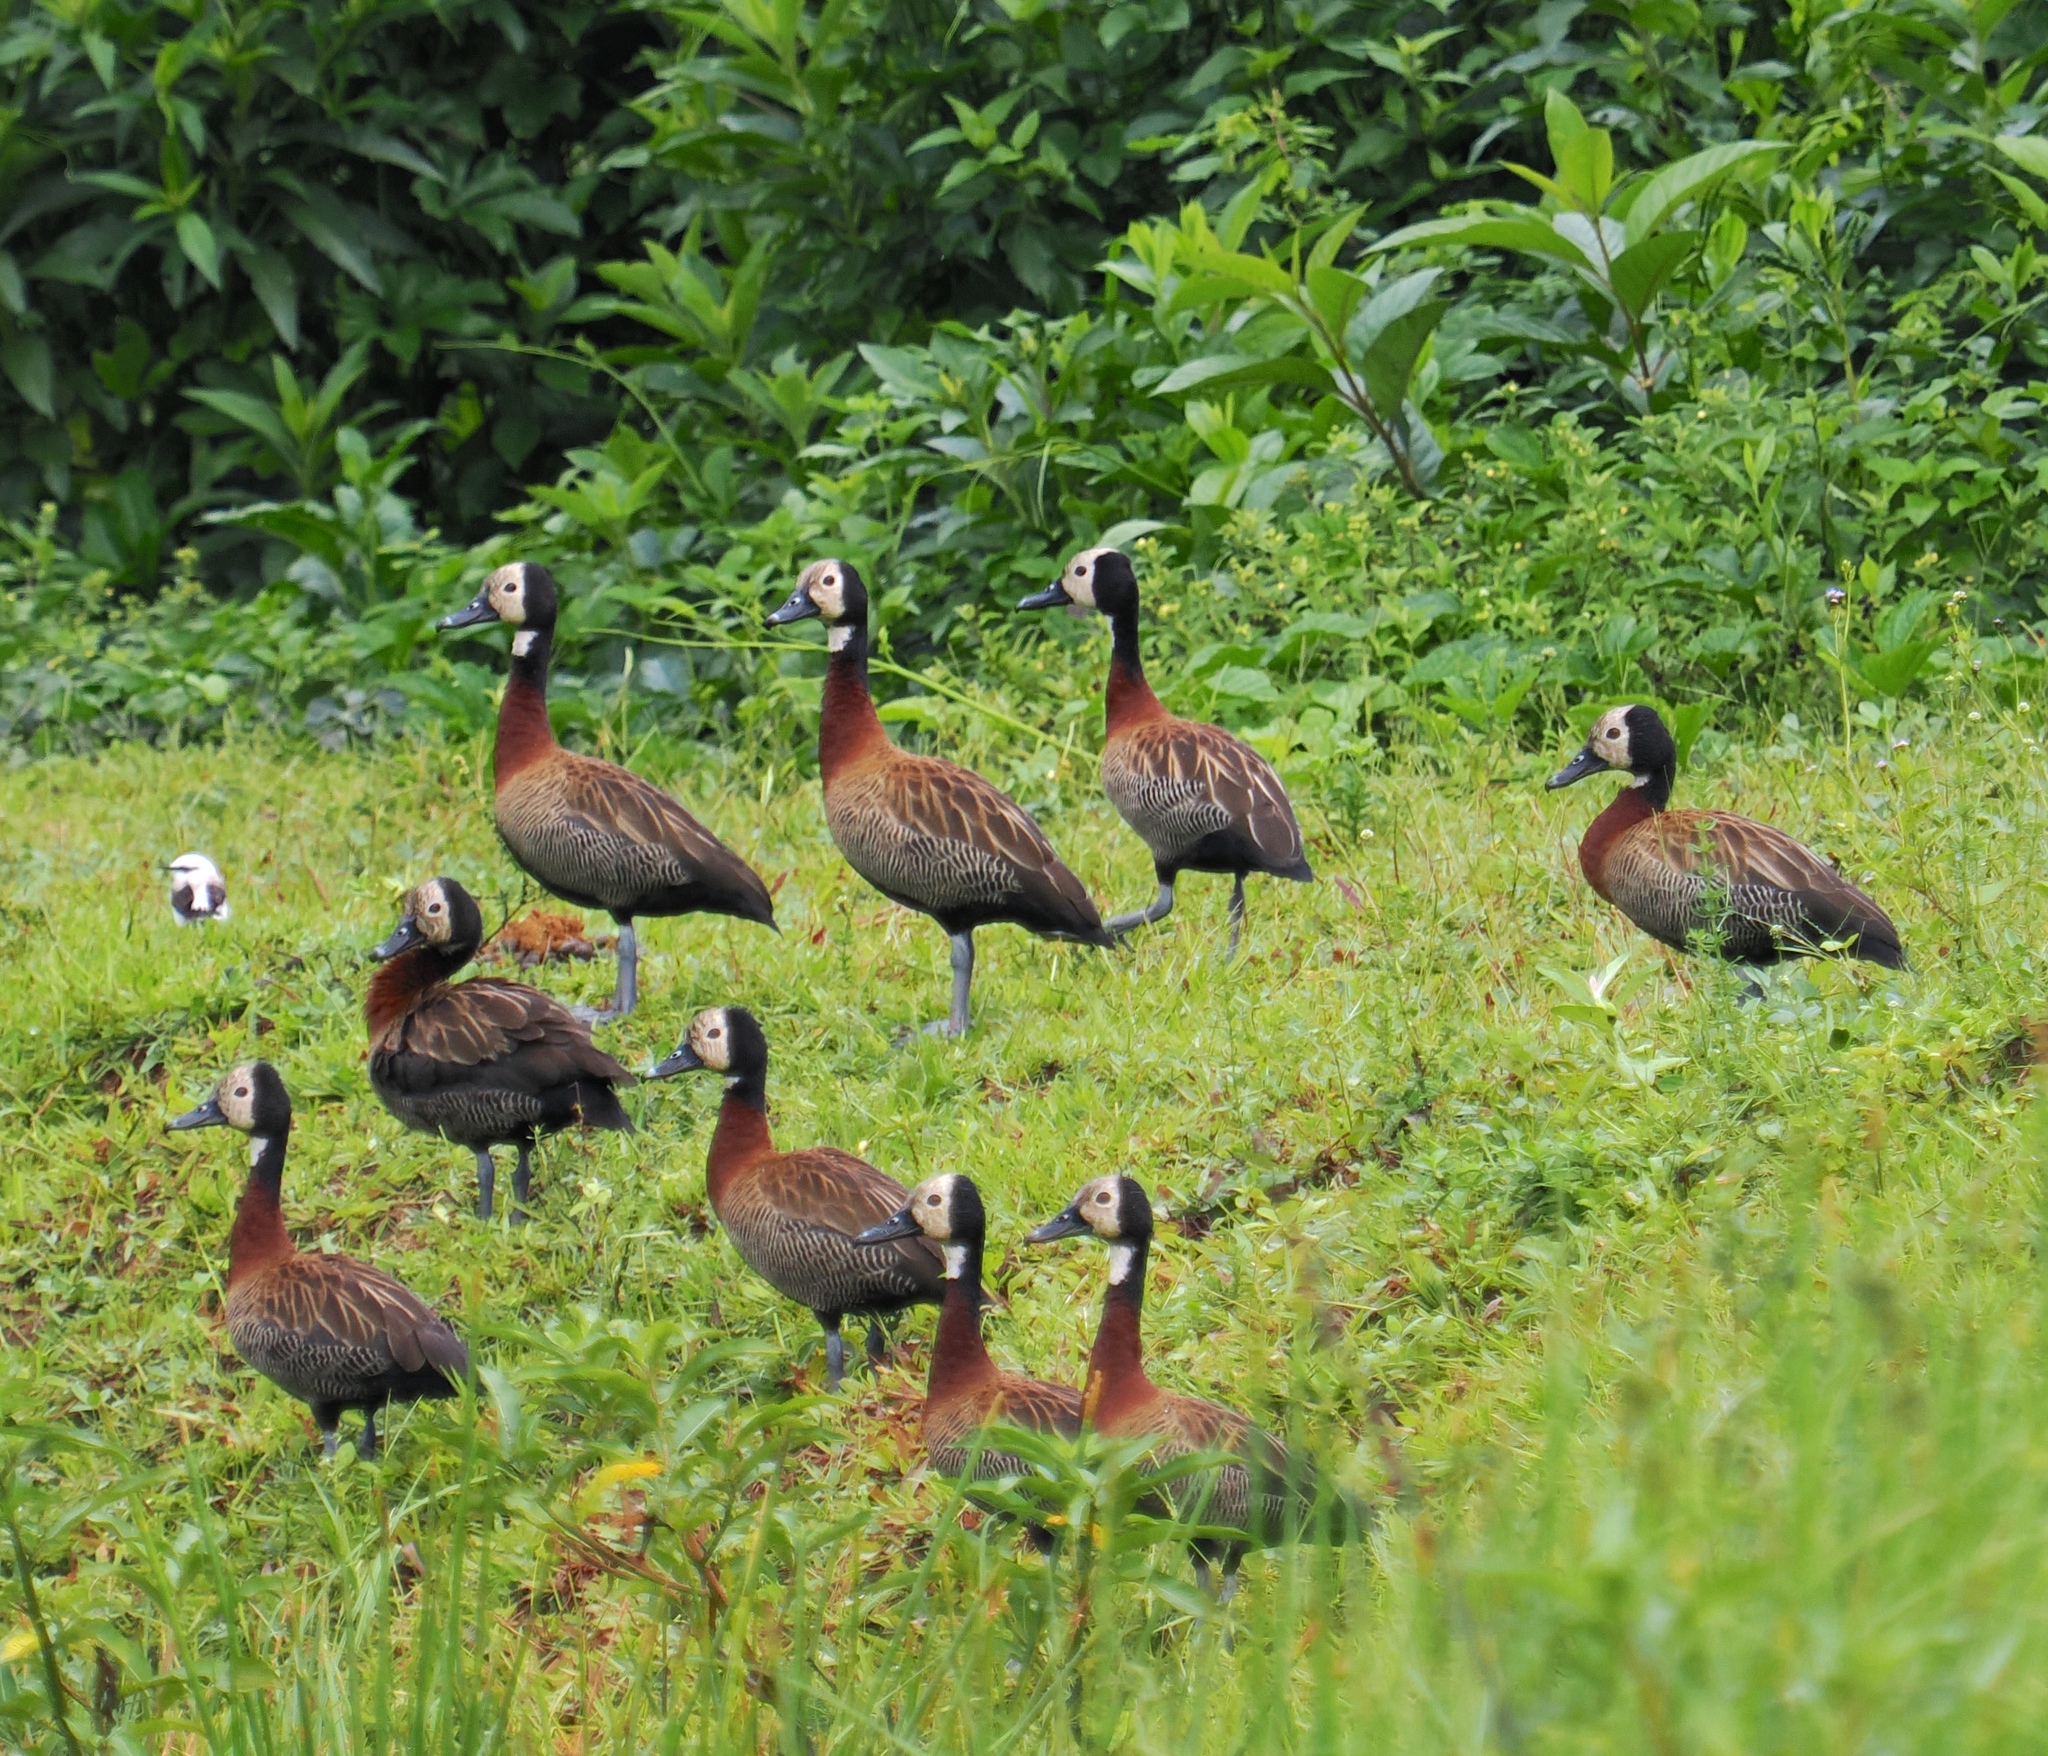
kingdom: Animalia
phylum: Chordata
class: Aves
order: Anseriformes
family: Anatidae
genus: Dendrocygna
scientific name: Dendrocygna viduata
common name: White-faced whistling duck
